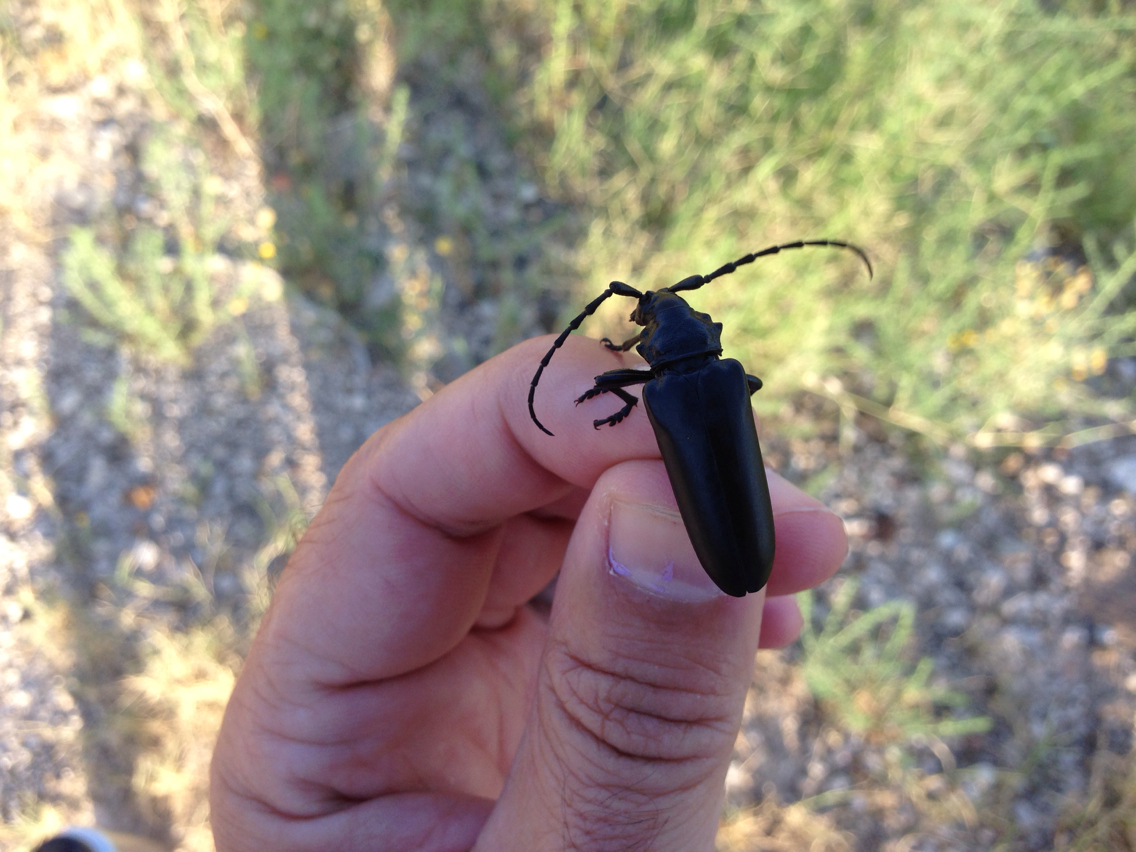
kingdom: Animalia
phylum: Arthropoda
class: Insecta
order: Coleoptera
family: Cerambycidae
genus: Stenaspis
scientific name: Stenaspis solitaria
